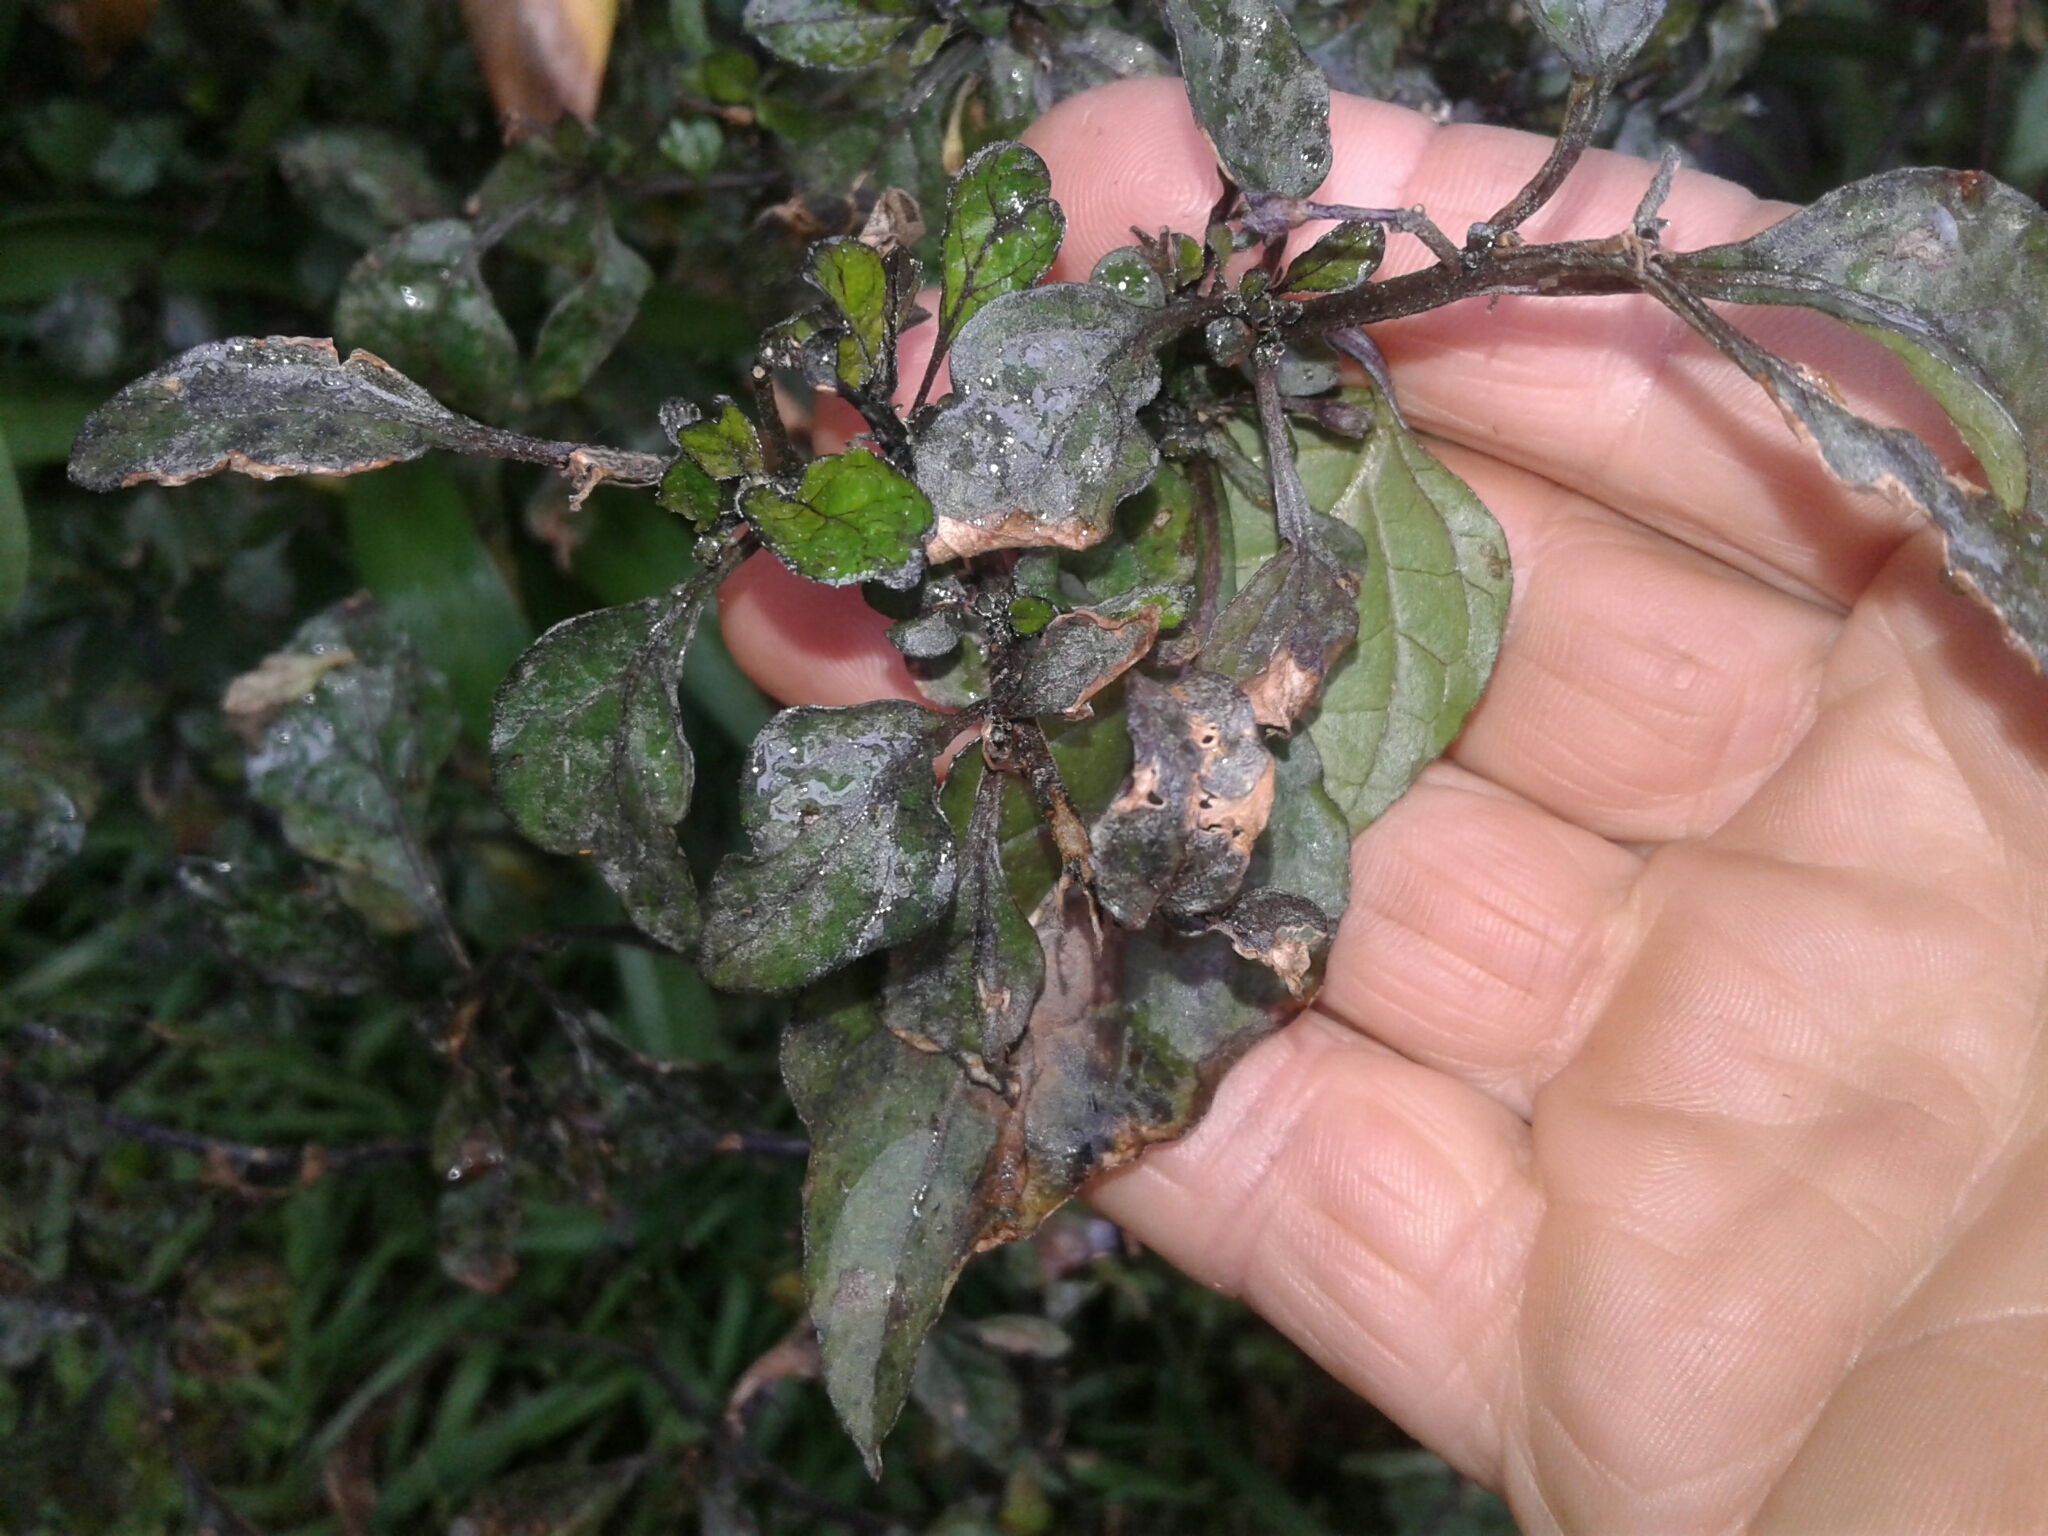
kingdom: Plantae
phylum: Tracheophyta
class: Magnoliopsida
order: Solanales
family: Solanaceae
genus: Solanum
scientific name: Solanum nigrum
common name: Black nightshade
